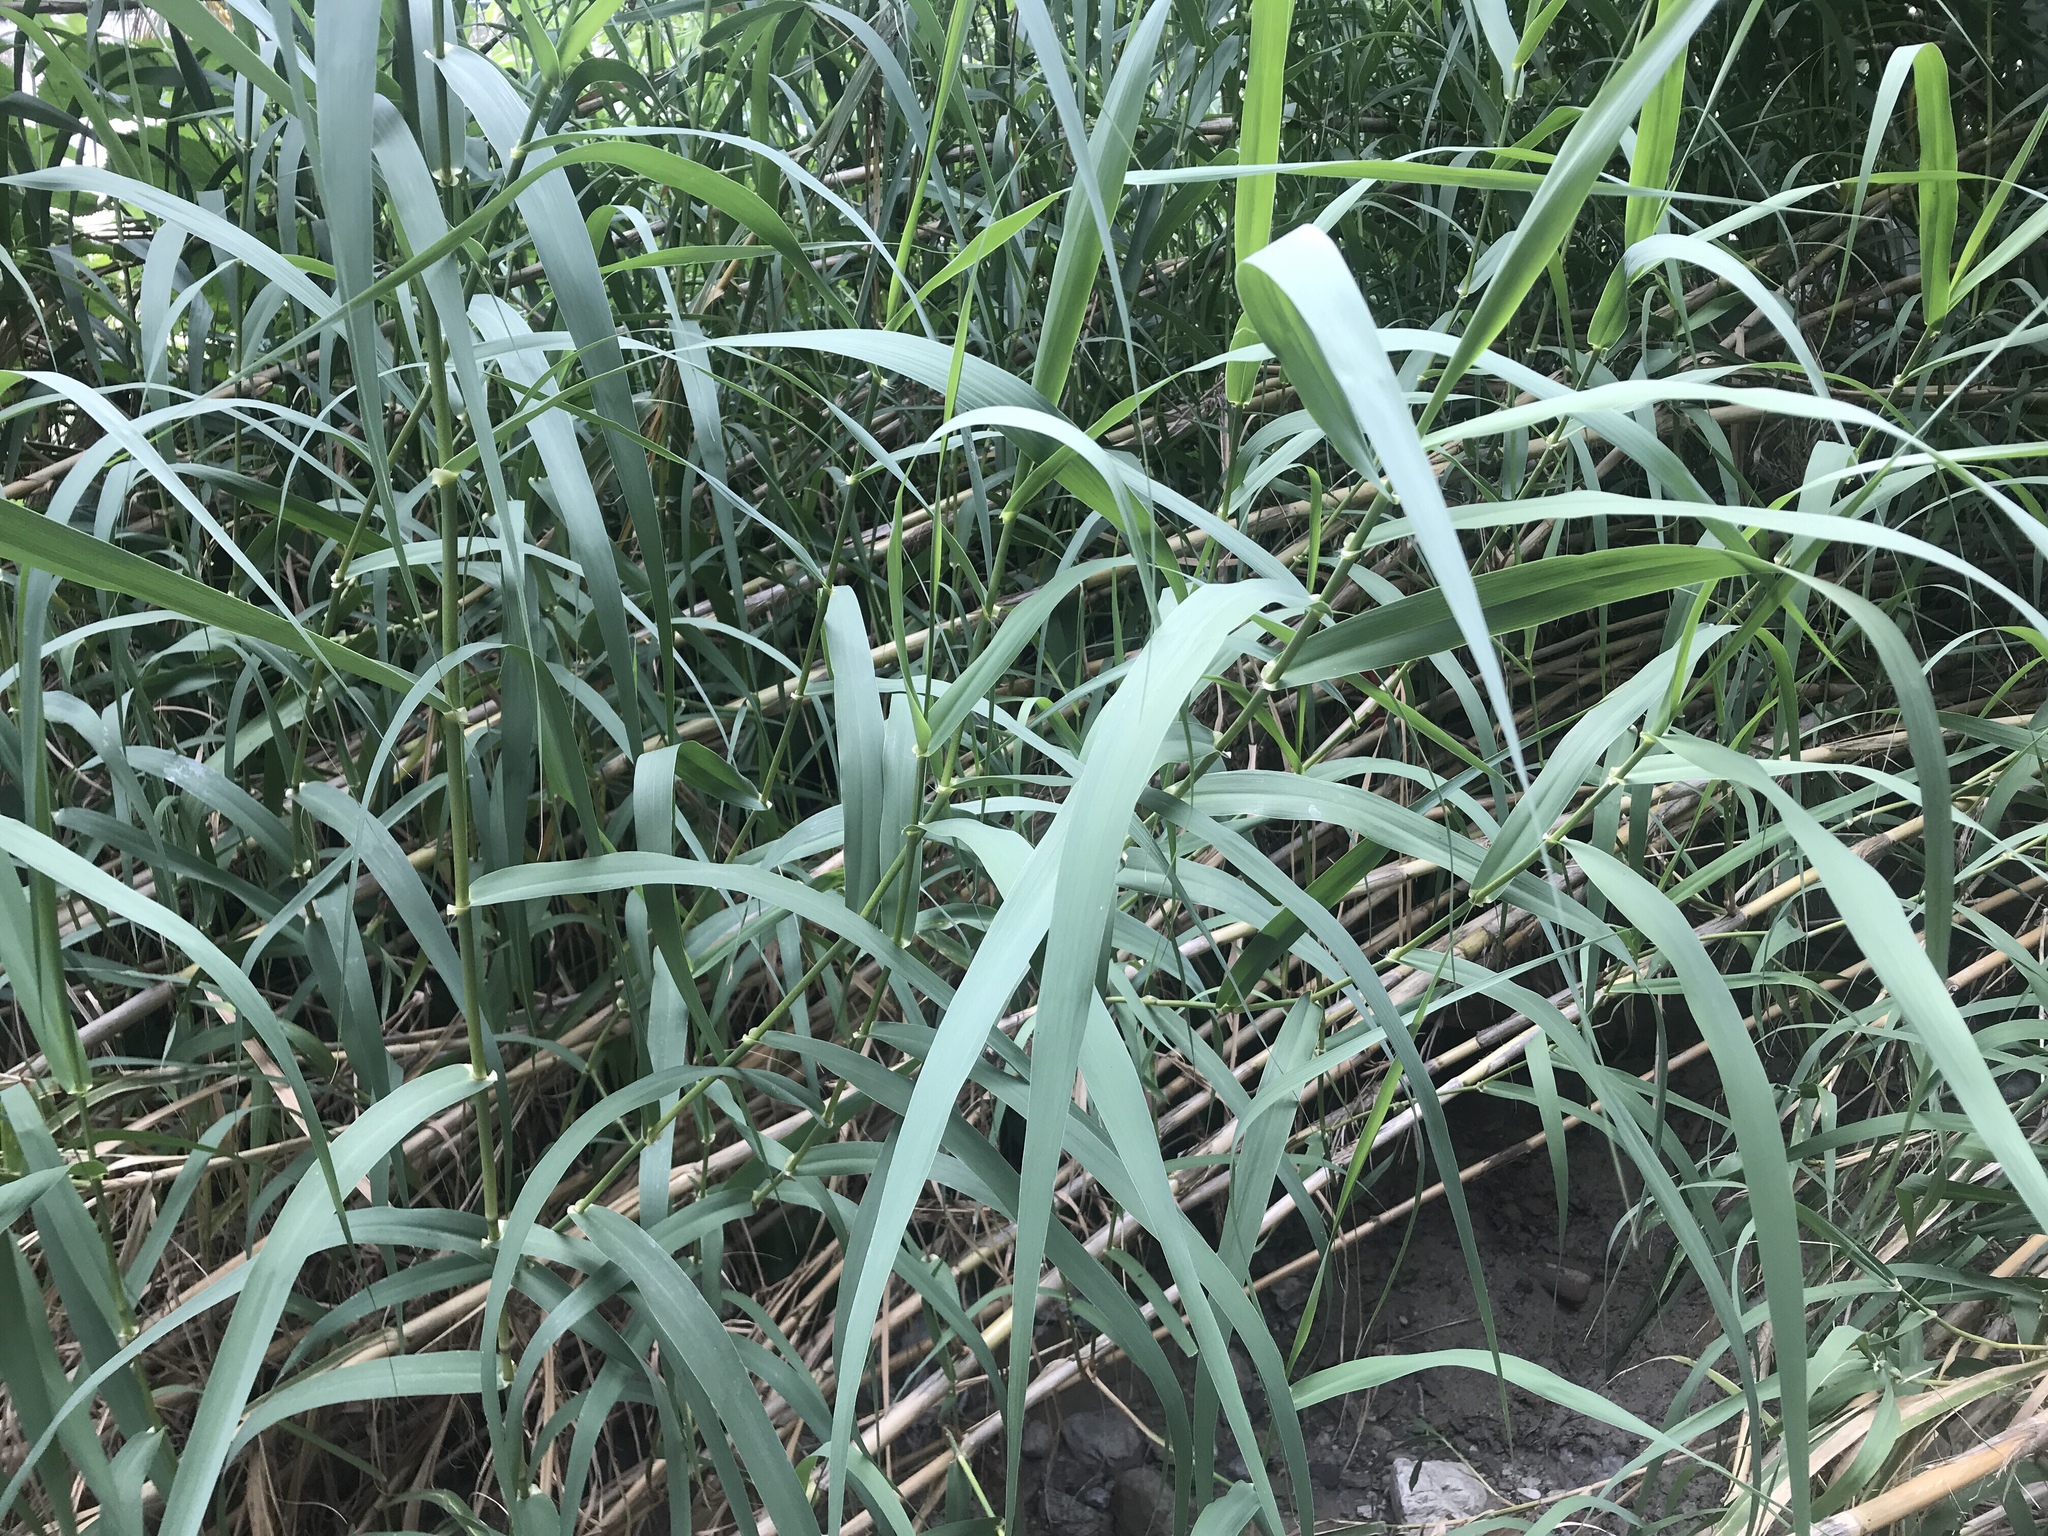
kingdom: Plantae
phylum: Tracheophyta
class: Liliopsida
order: Poales
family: Poaceae
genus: Arundo
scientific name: Arundo donax
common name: Giant reed
